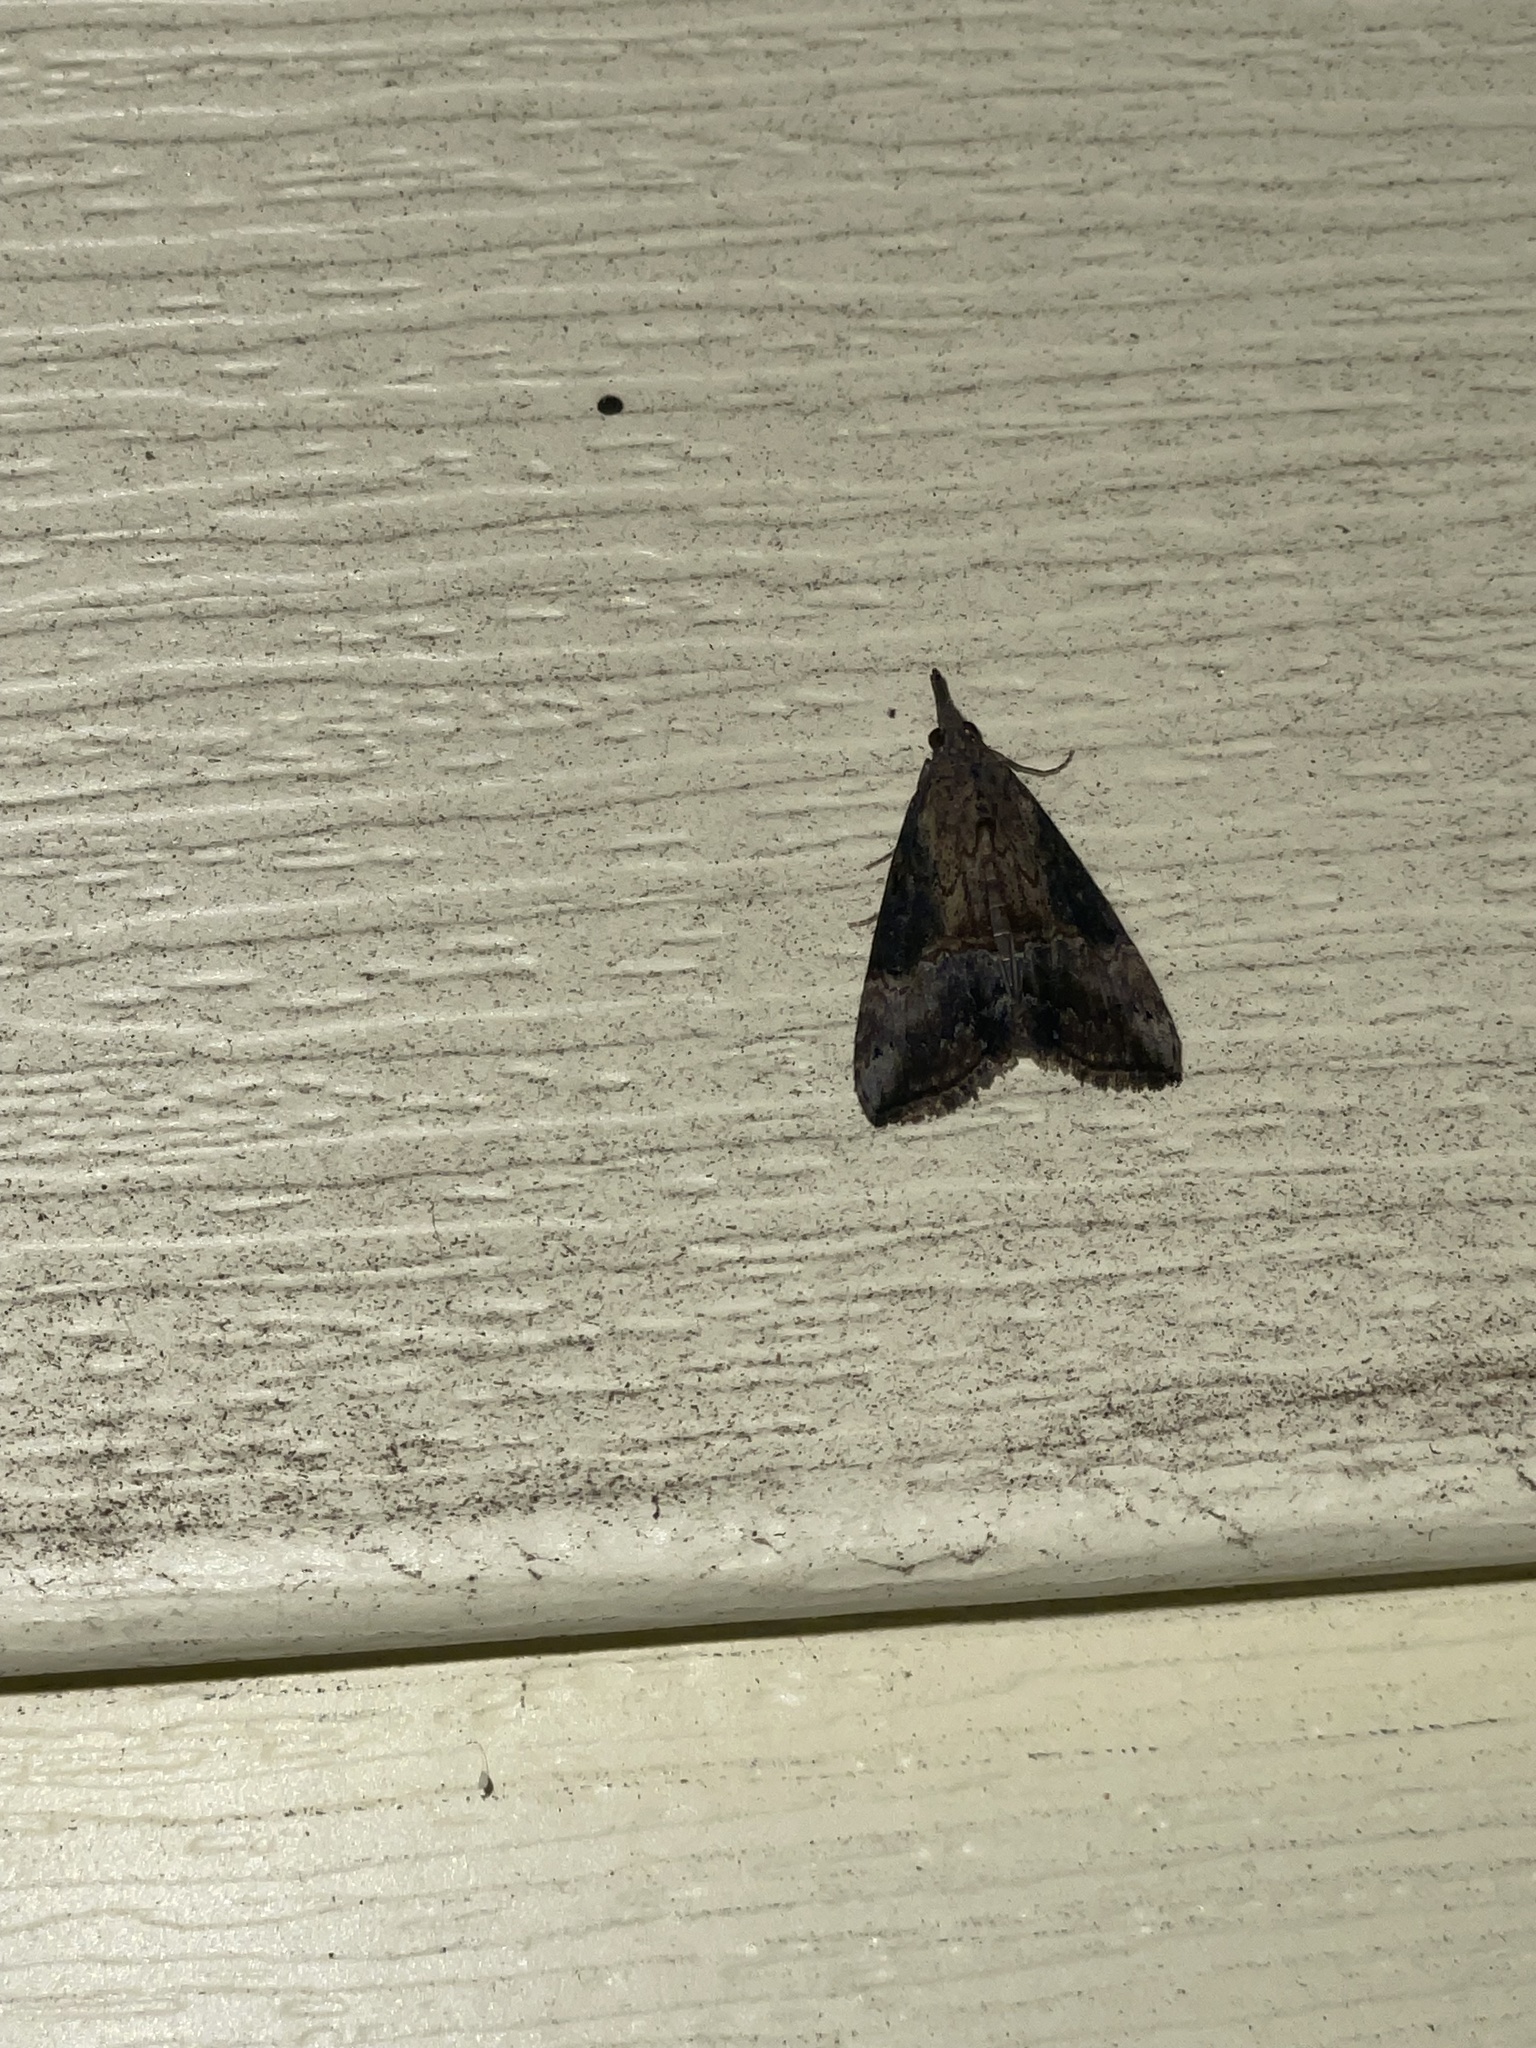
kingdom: Animalia
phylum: Arthropoda
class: Insecta
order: Lepidoptera
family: Erebidae
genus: Hypena
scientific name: Hypena scabra
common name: Green cloverworm
